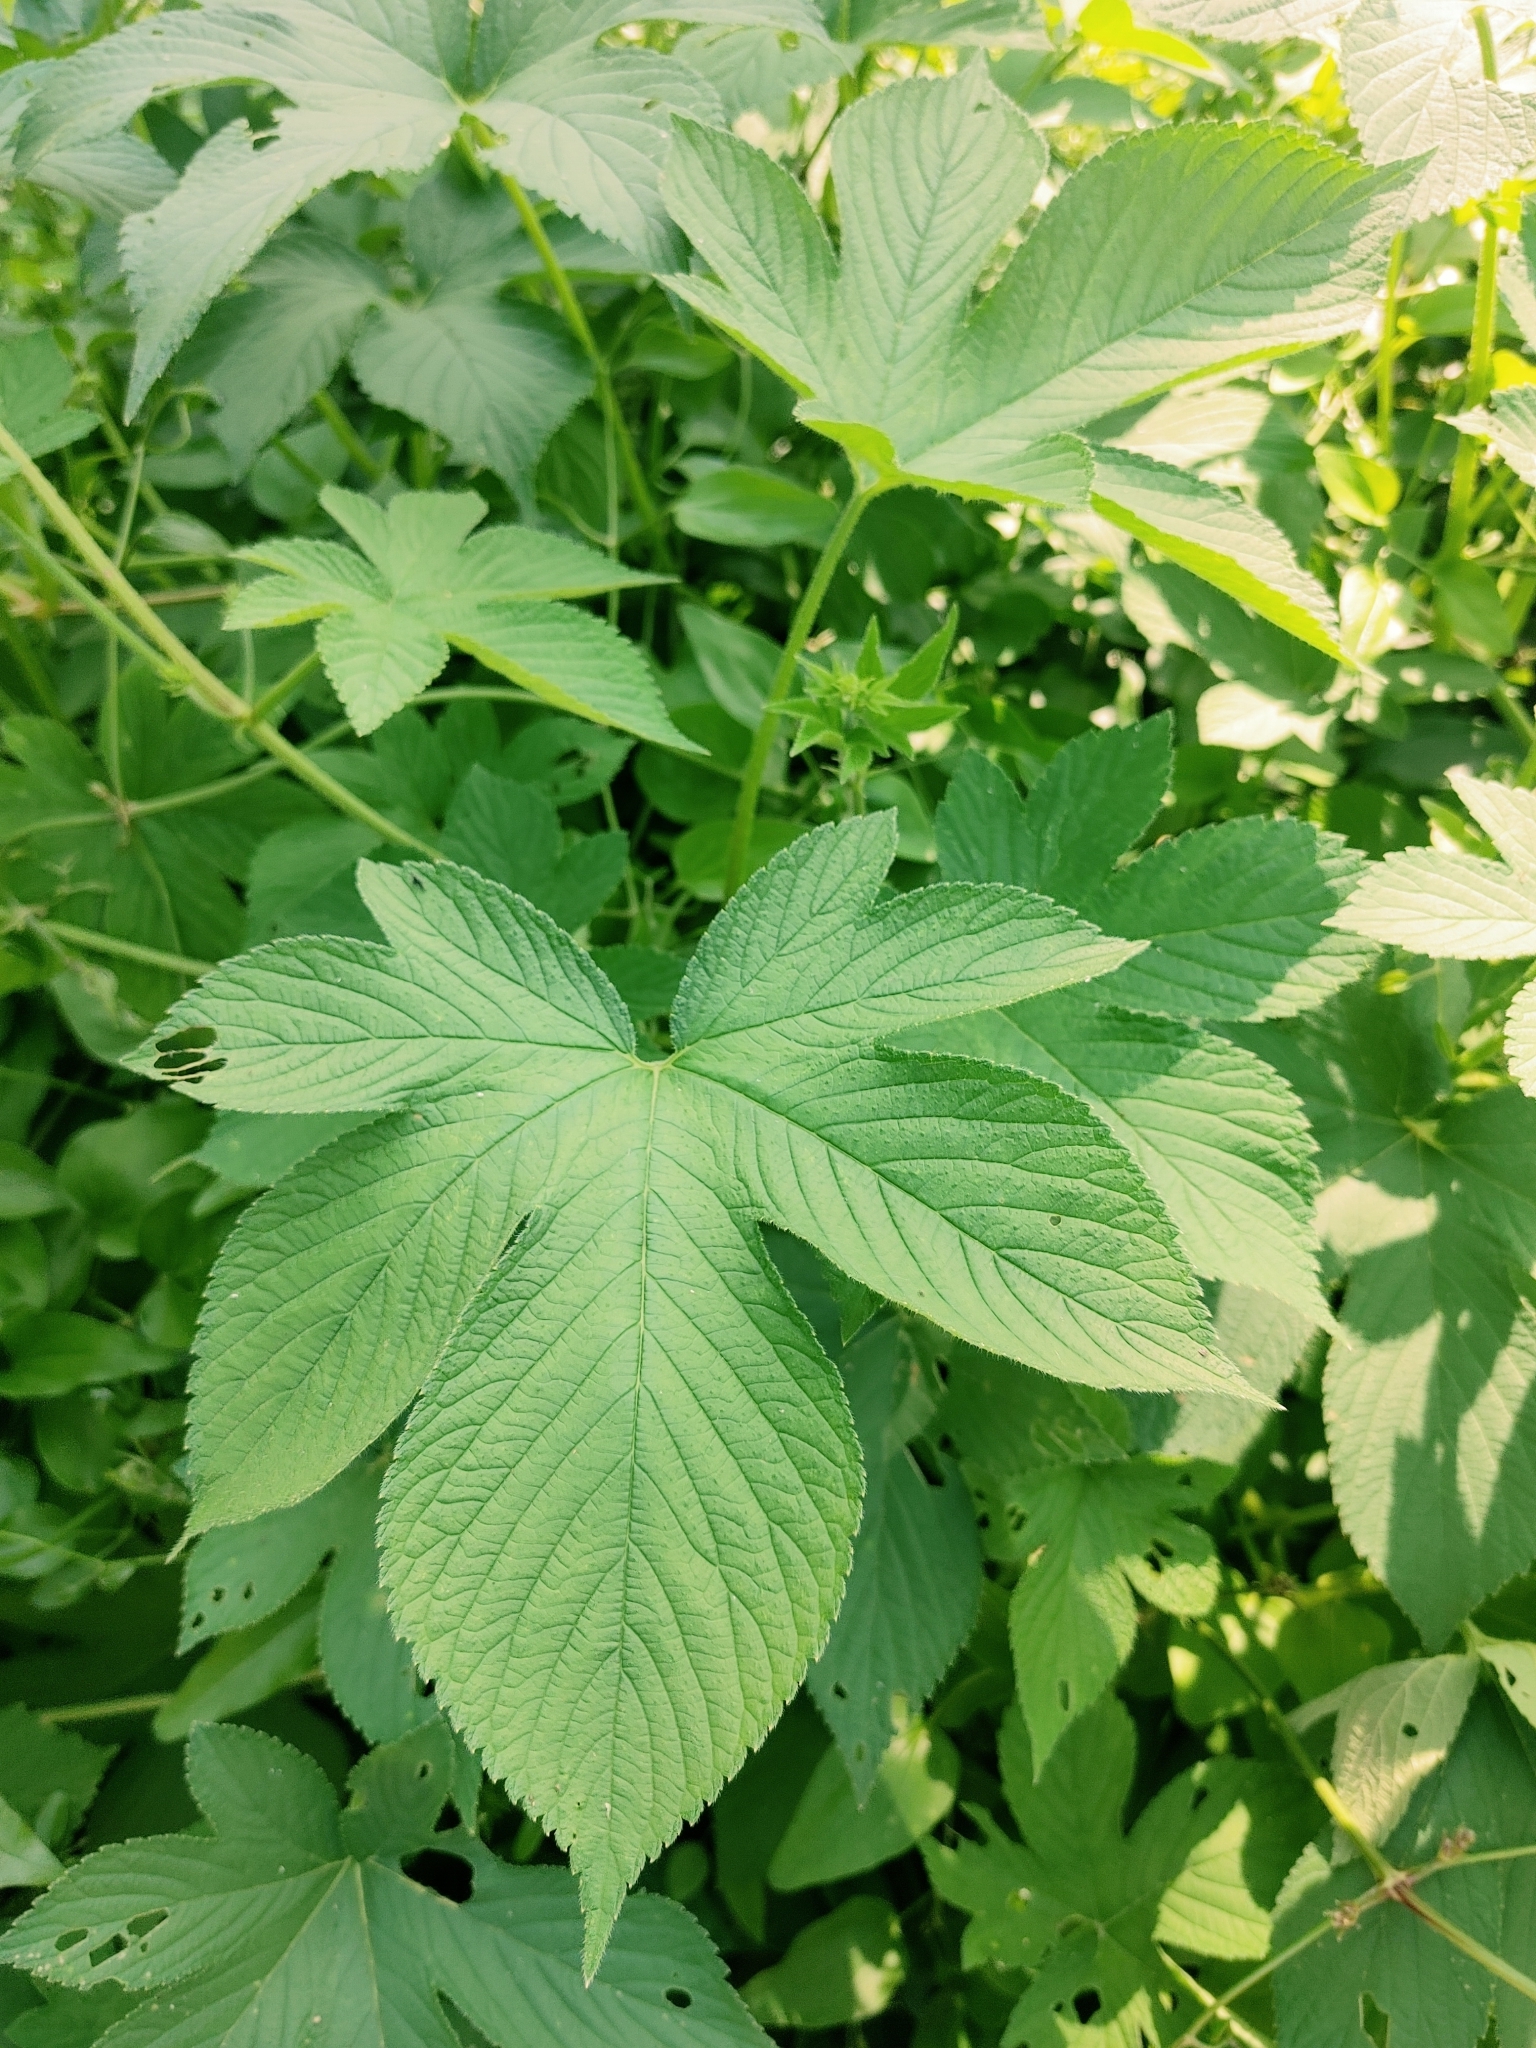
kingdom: Plantae
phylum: Tracheophyta
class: Magnoliopsida
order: Rosales
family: Cannabaceae
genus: Humulus
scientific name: Humulus scandens
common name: Japanese hop
